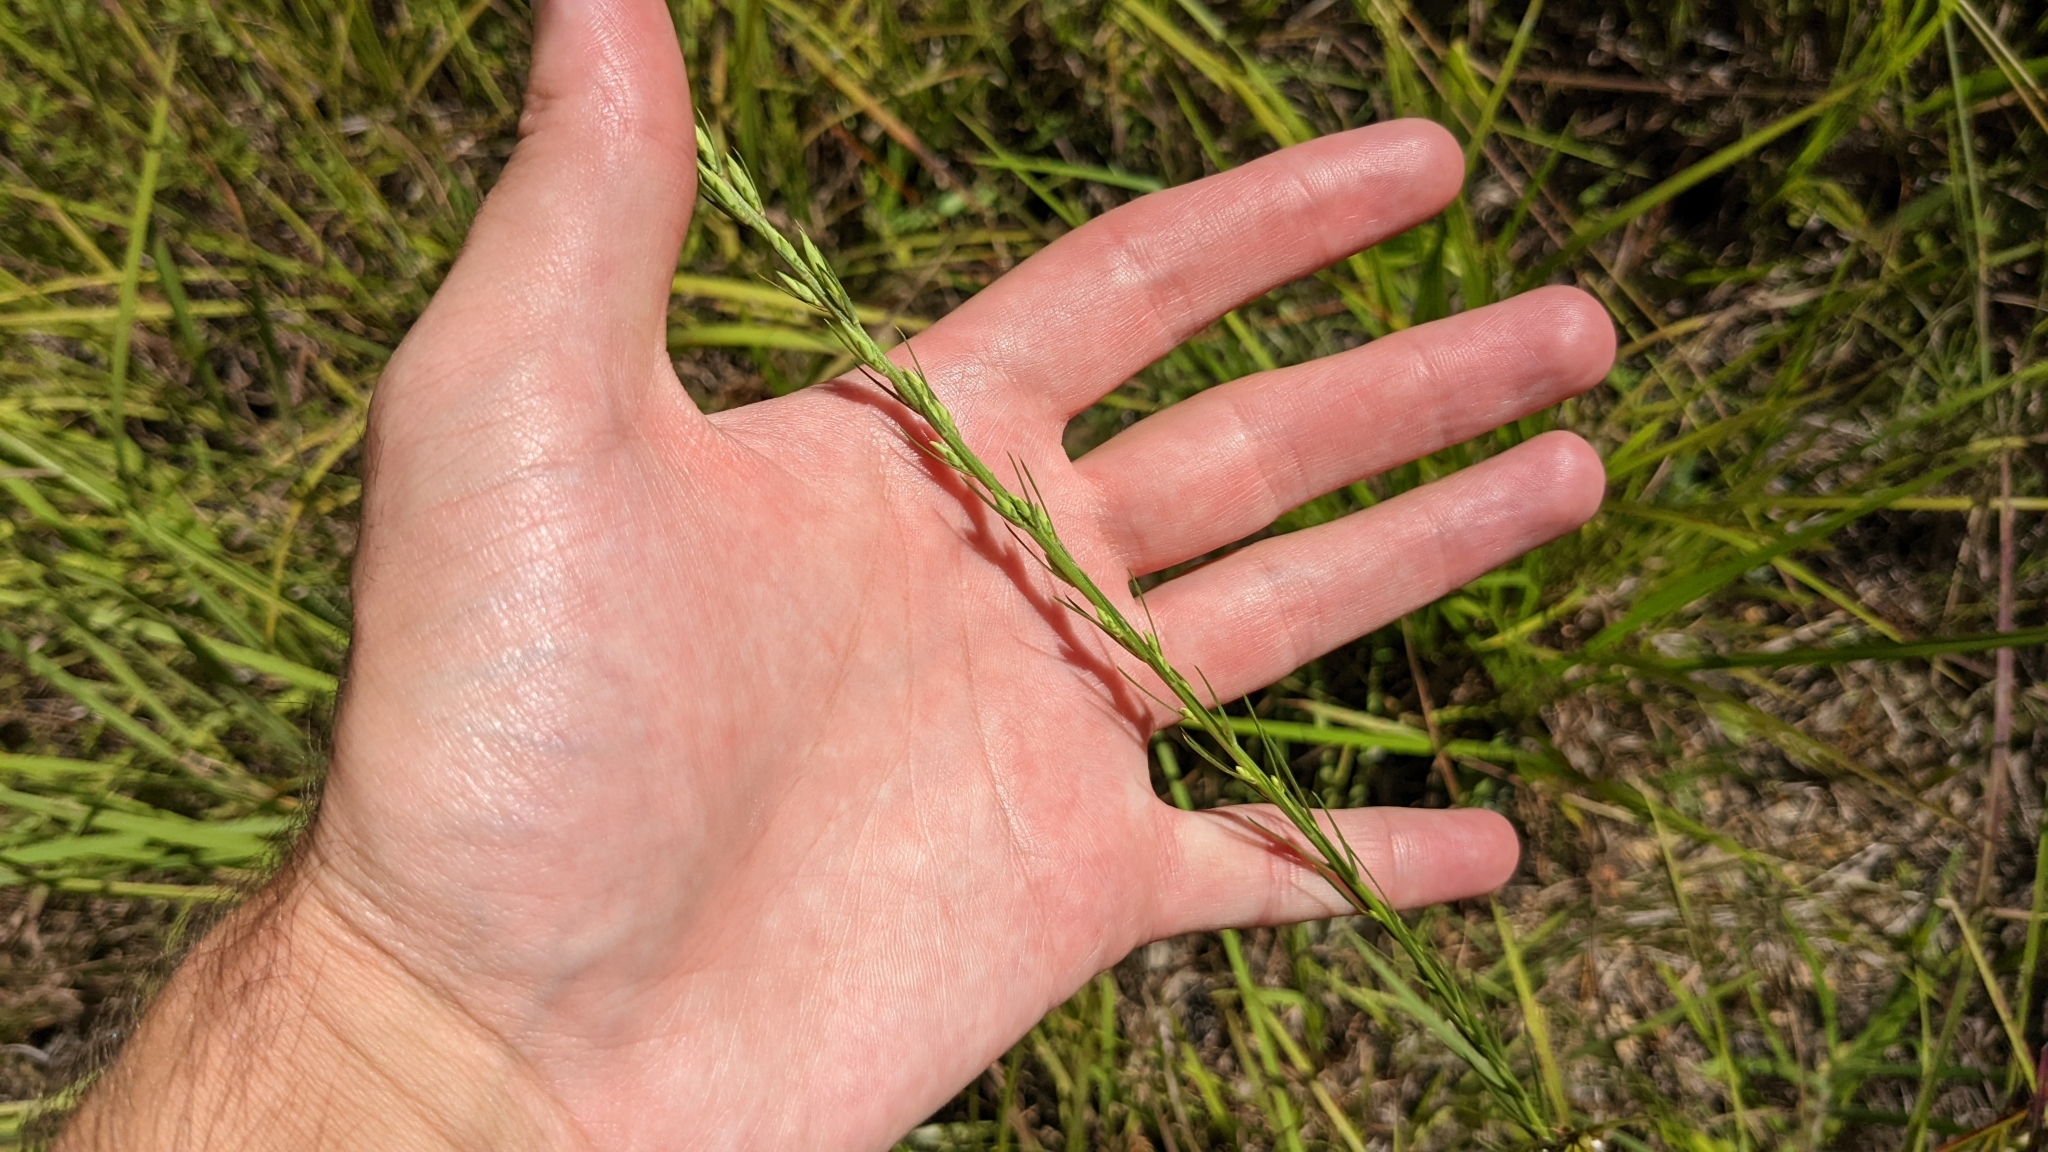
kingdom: Plantae
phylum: Tracheophyta
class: Magnoliopsida
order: Asterales
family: Asteraceae
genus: Liatris
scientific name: Liatris acidota
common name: Gulf coast gayfeather
